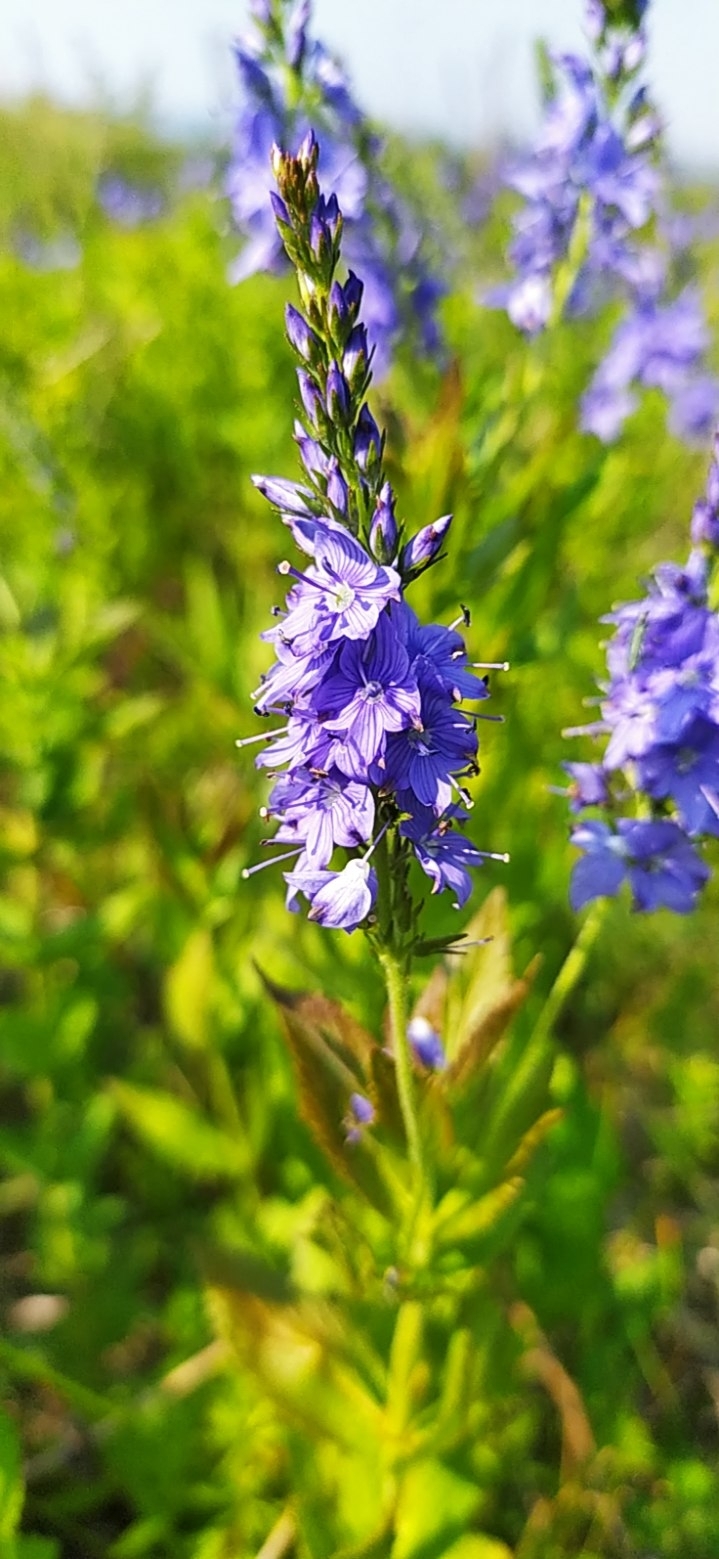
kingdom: Plantae
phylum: Tracheophyta
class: Magnoliopsida
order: Lamiales
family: Plantaginaceae
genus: Veronica
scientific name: Veronica teucrium
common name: Large speedwell
